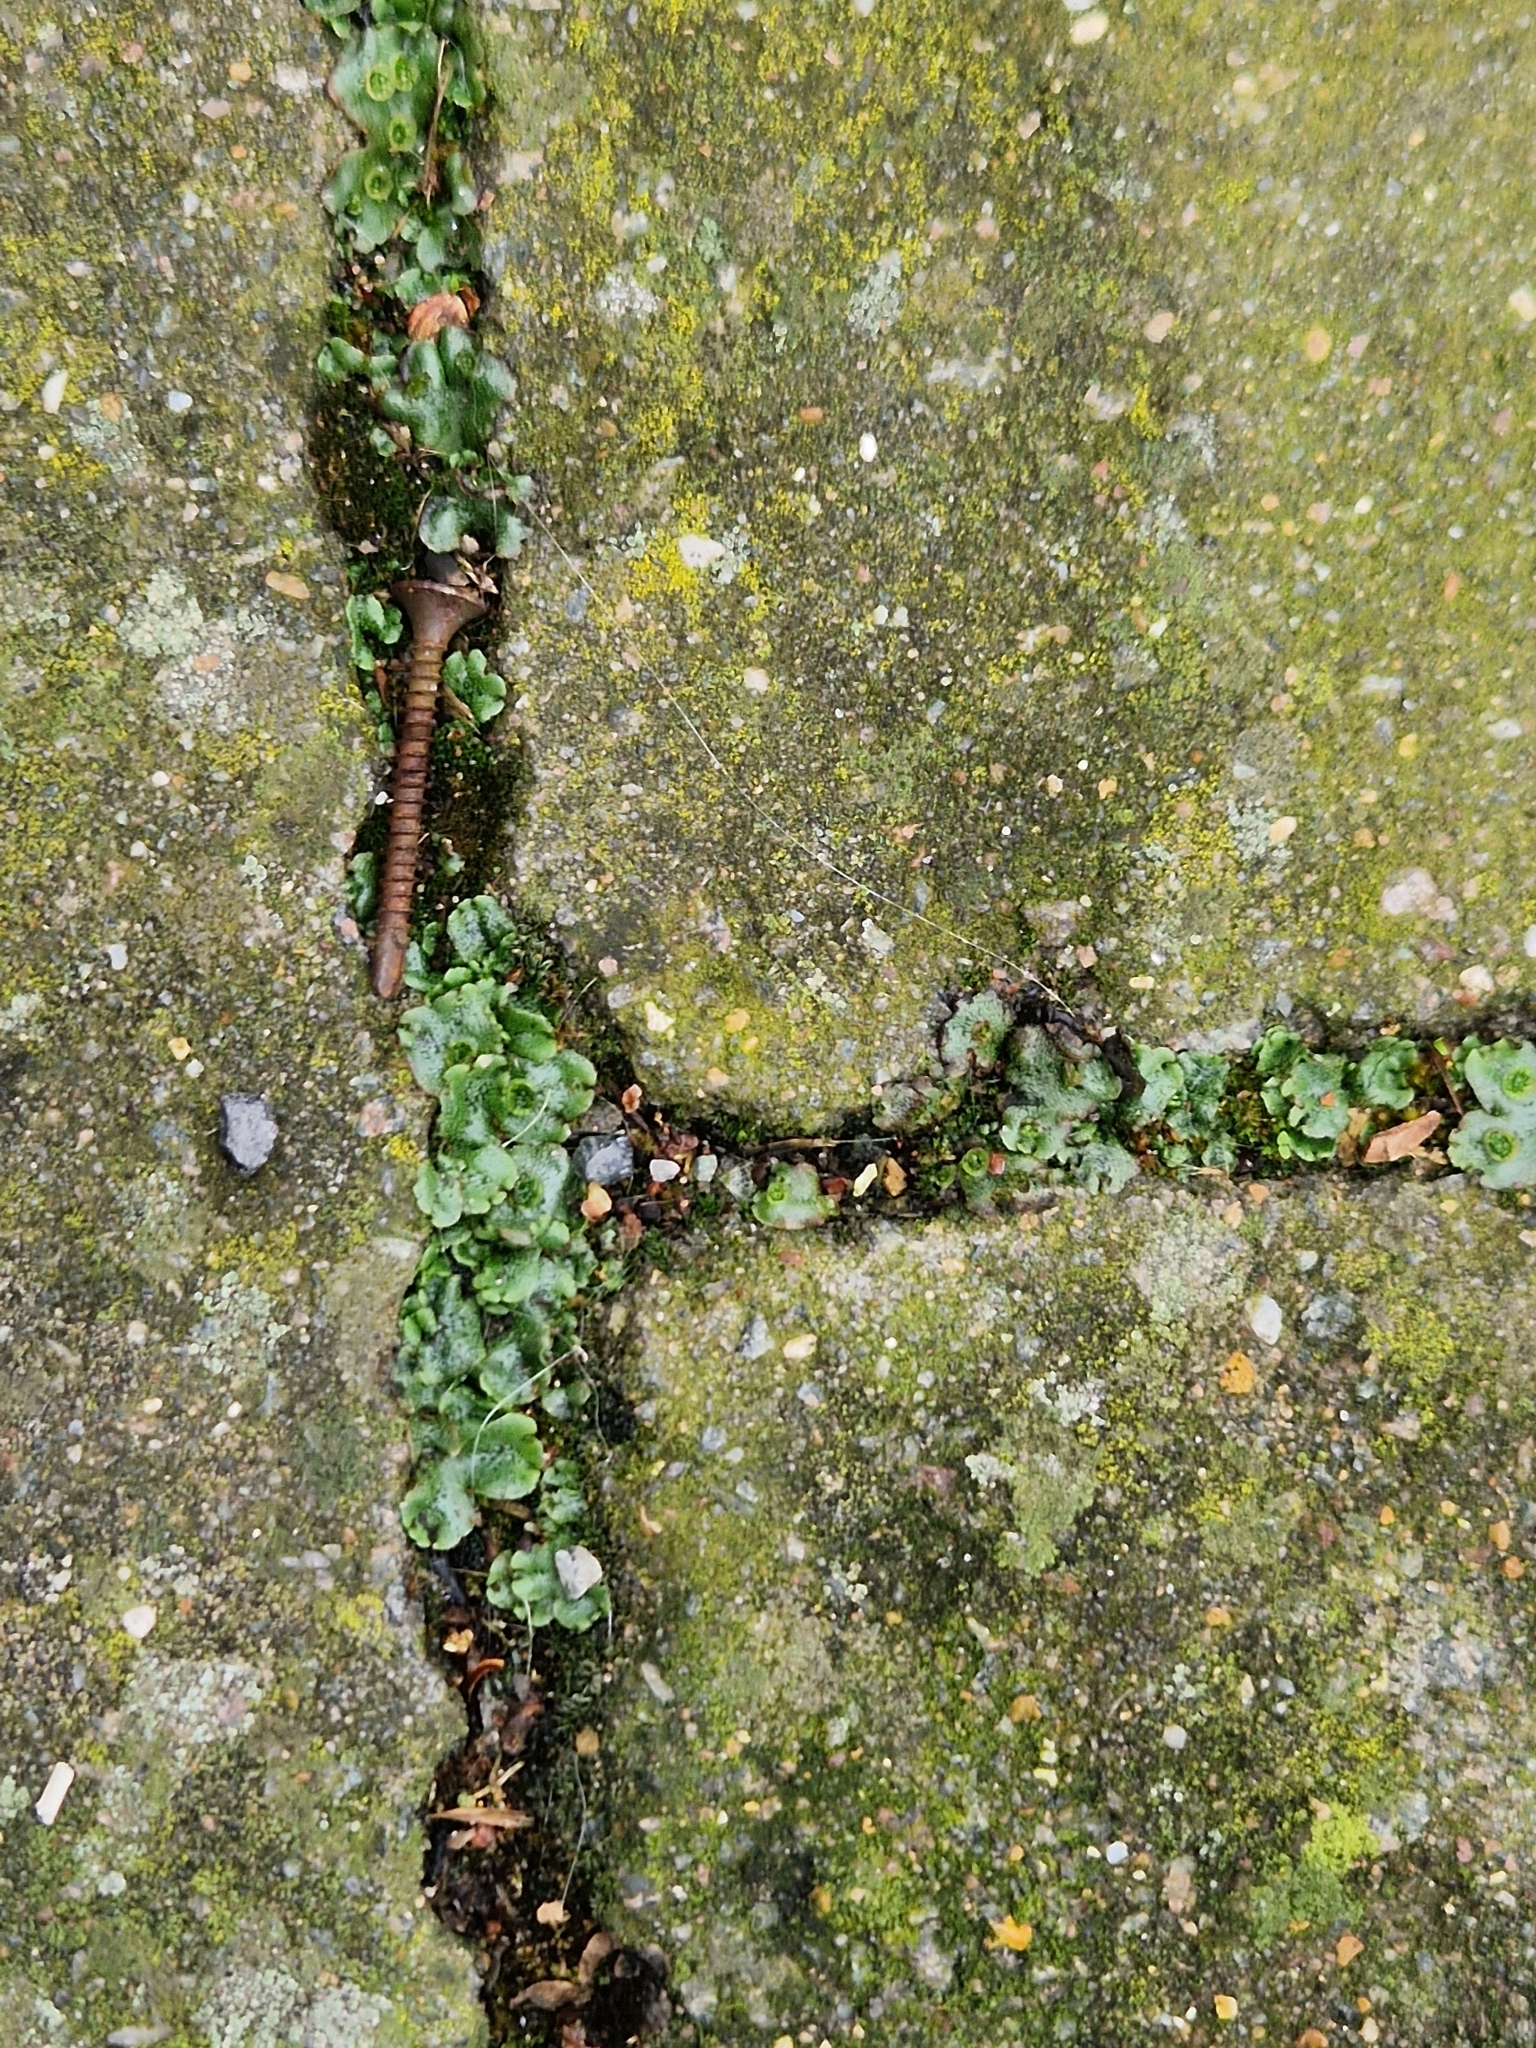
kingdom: Plantae
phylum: Marchantiophyta
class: Marchantiopsida
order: Marchantiales
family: Marchantiaceae
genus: Marchantia
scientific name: Marchantia polymorpha
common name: Common liverwort
